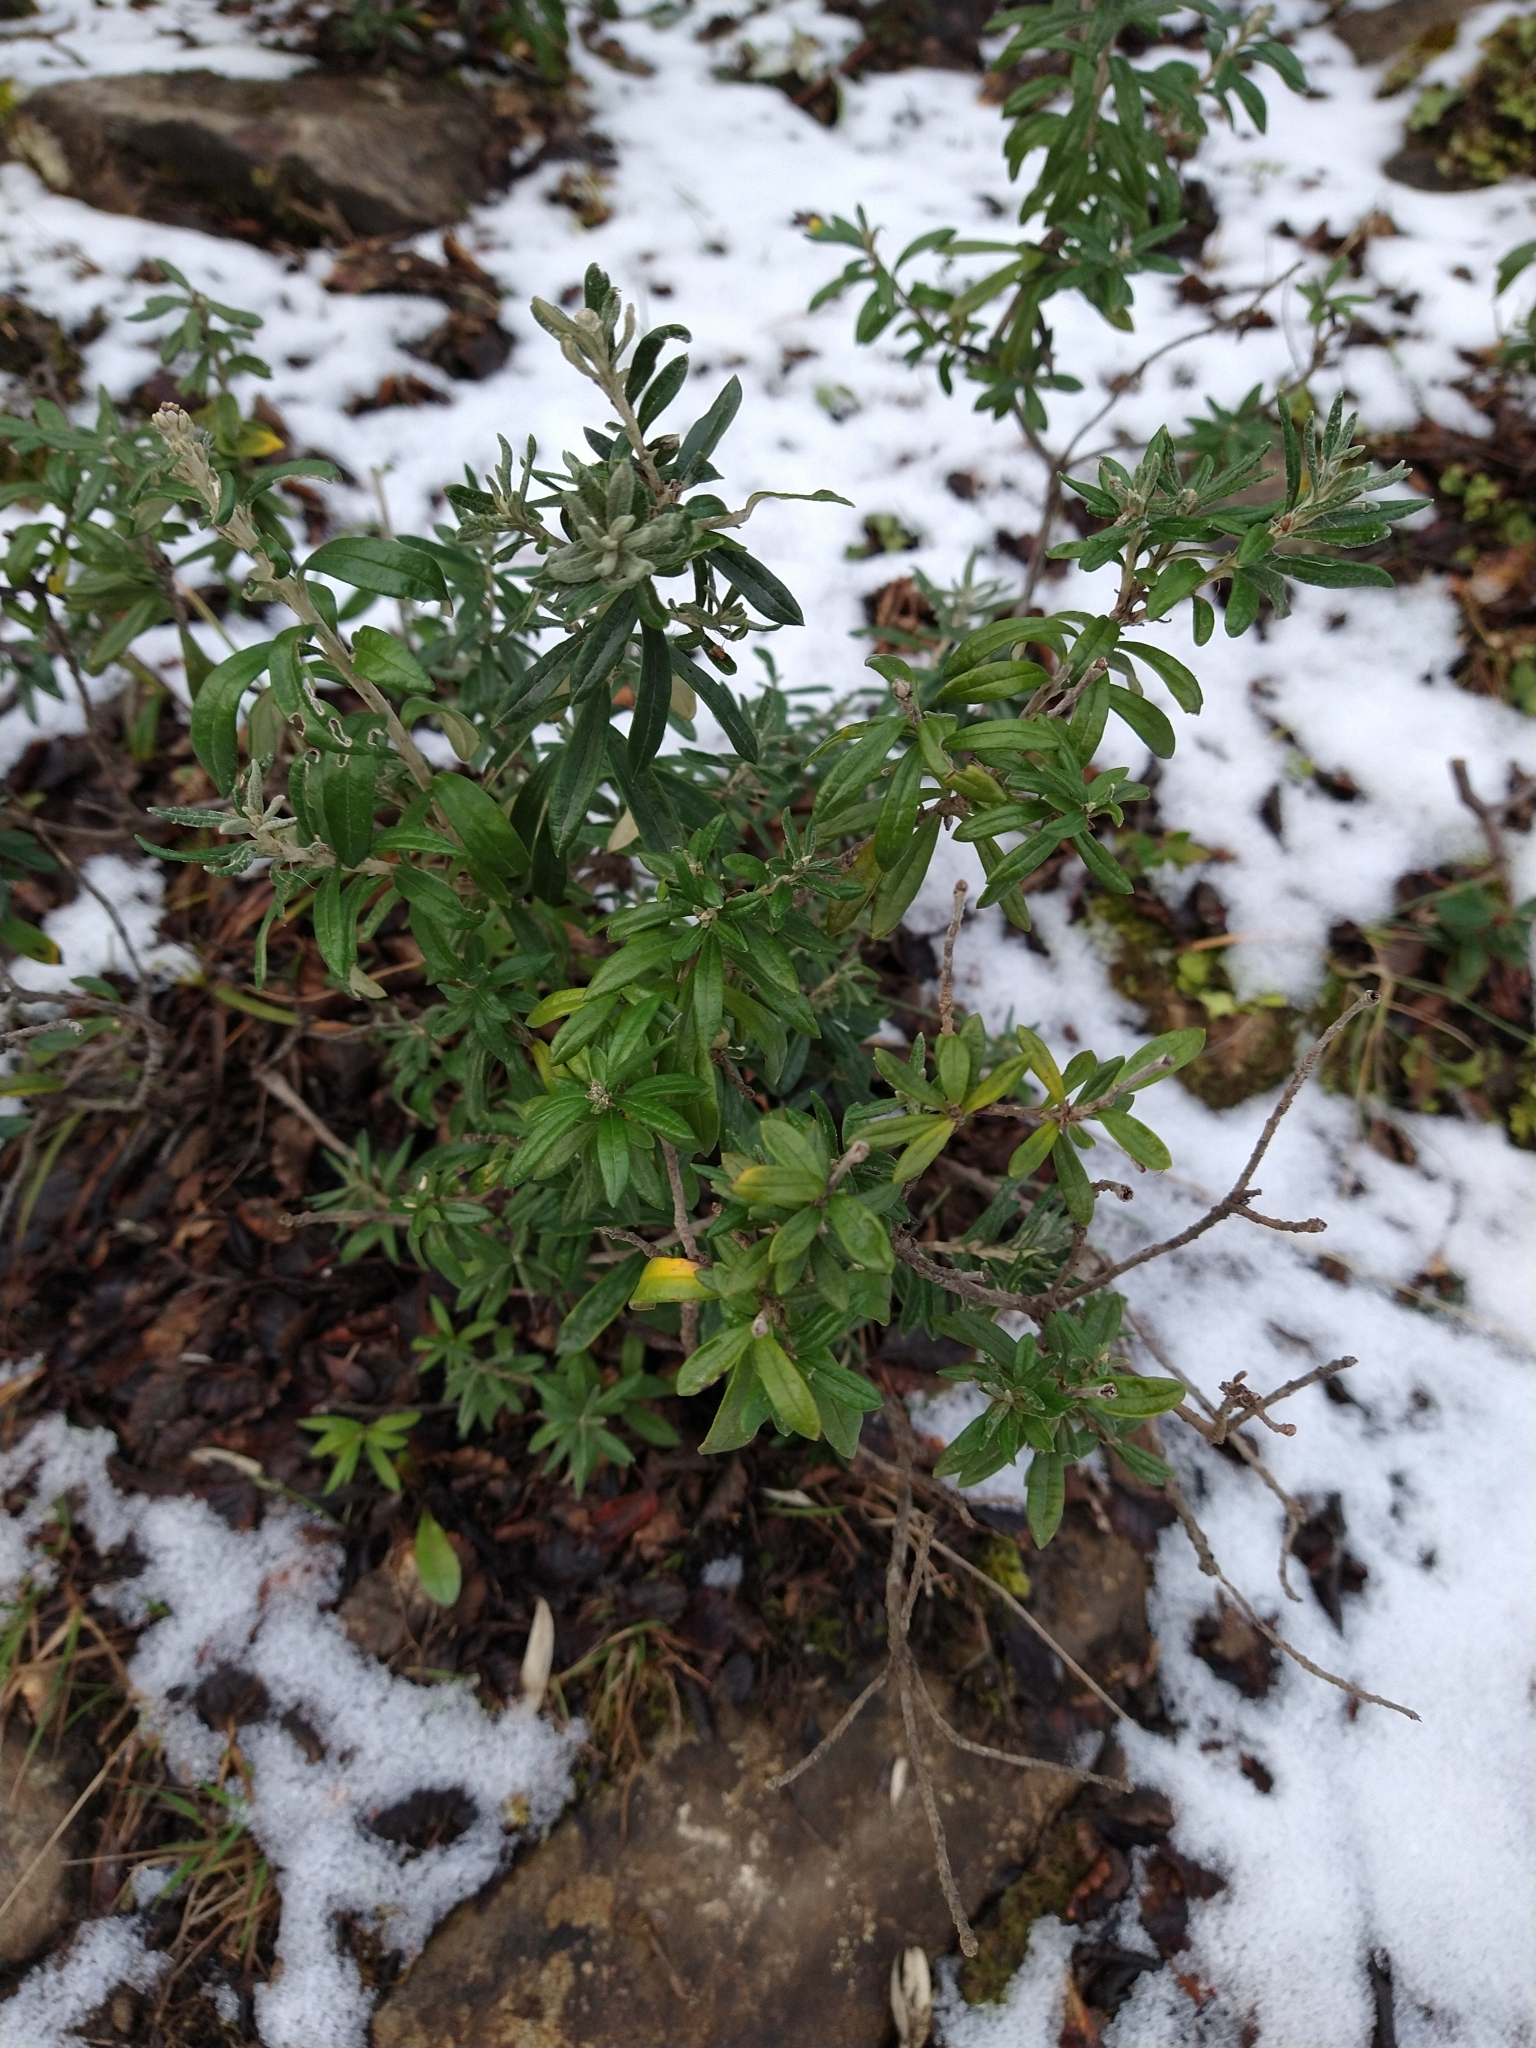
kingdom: Plantae
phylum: Tracheophyta
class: Magnoliopsida
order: Asterales
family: Asteraceae
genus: Chiliotrichum
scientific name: Chiliotrichum diffusum
